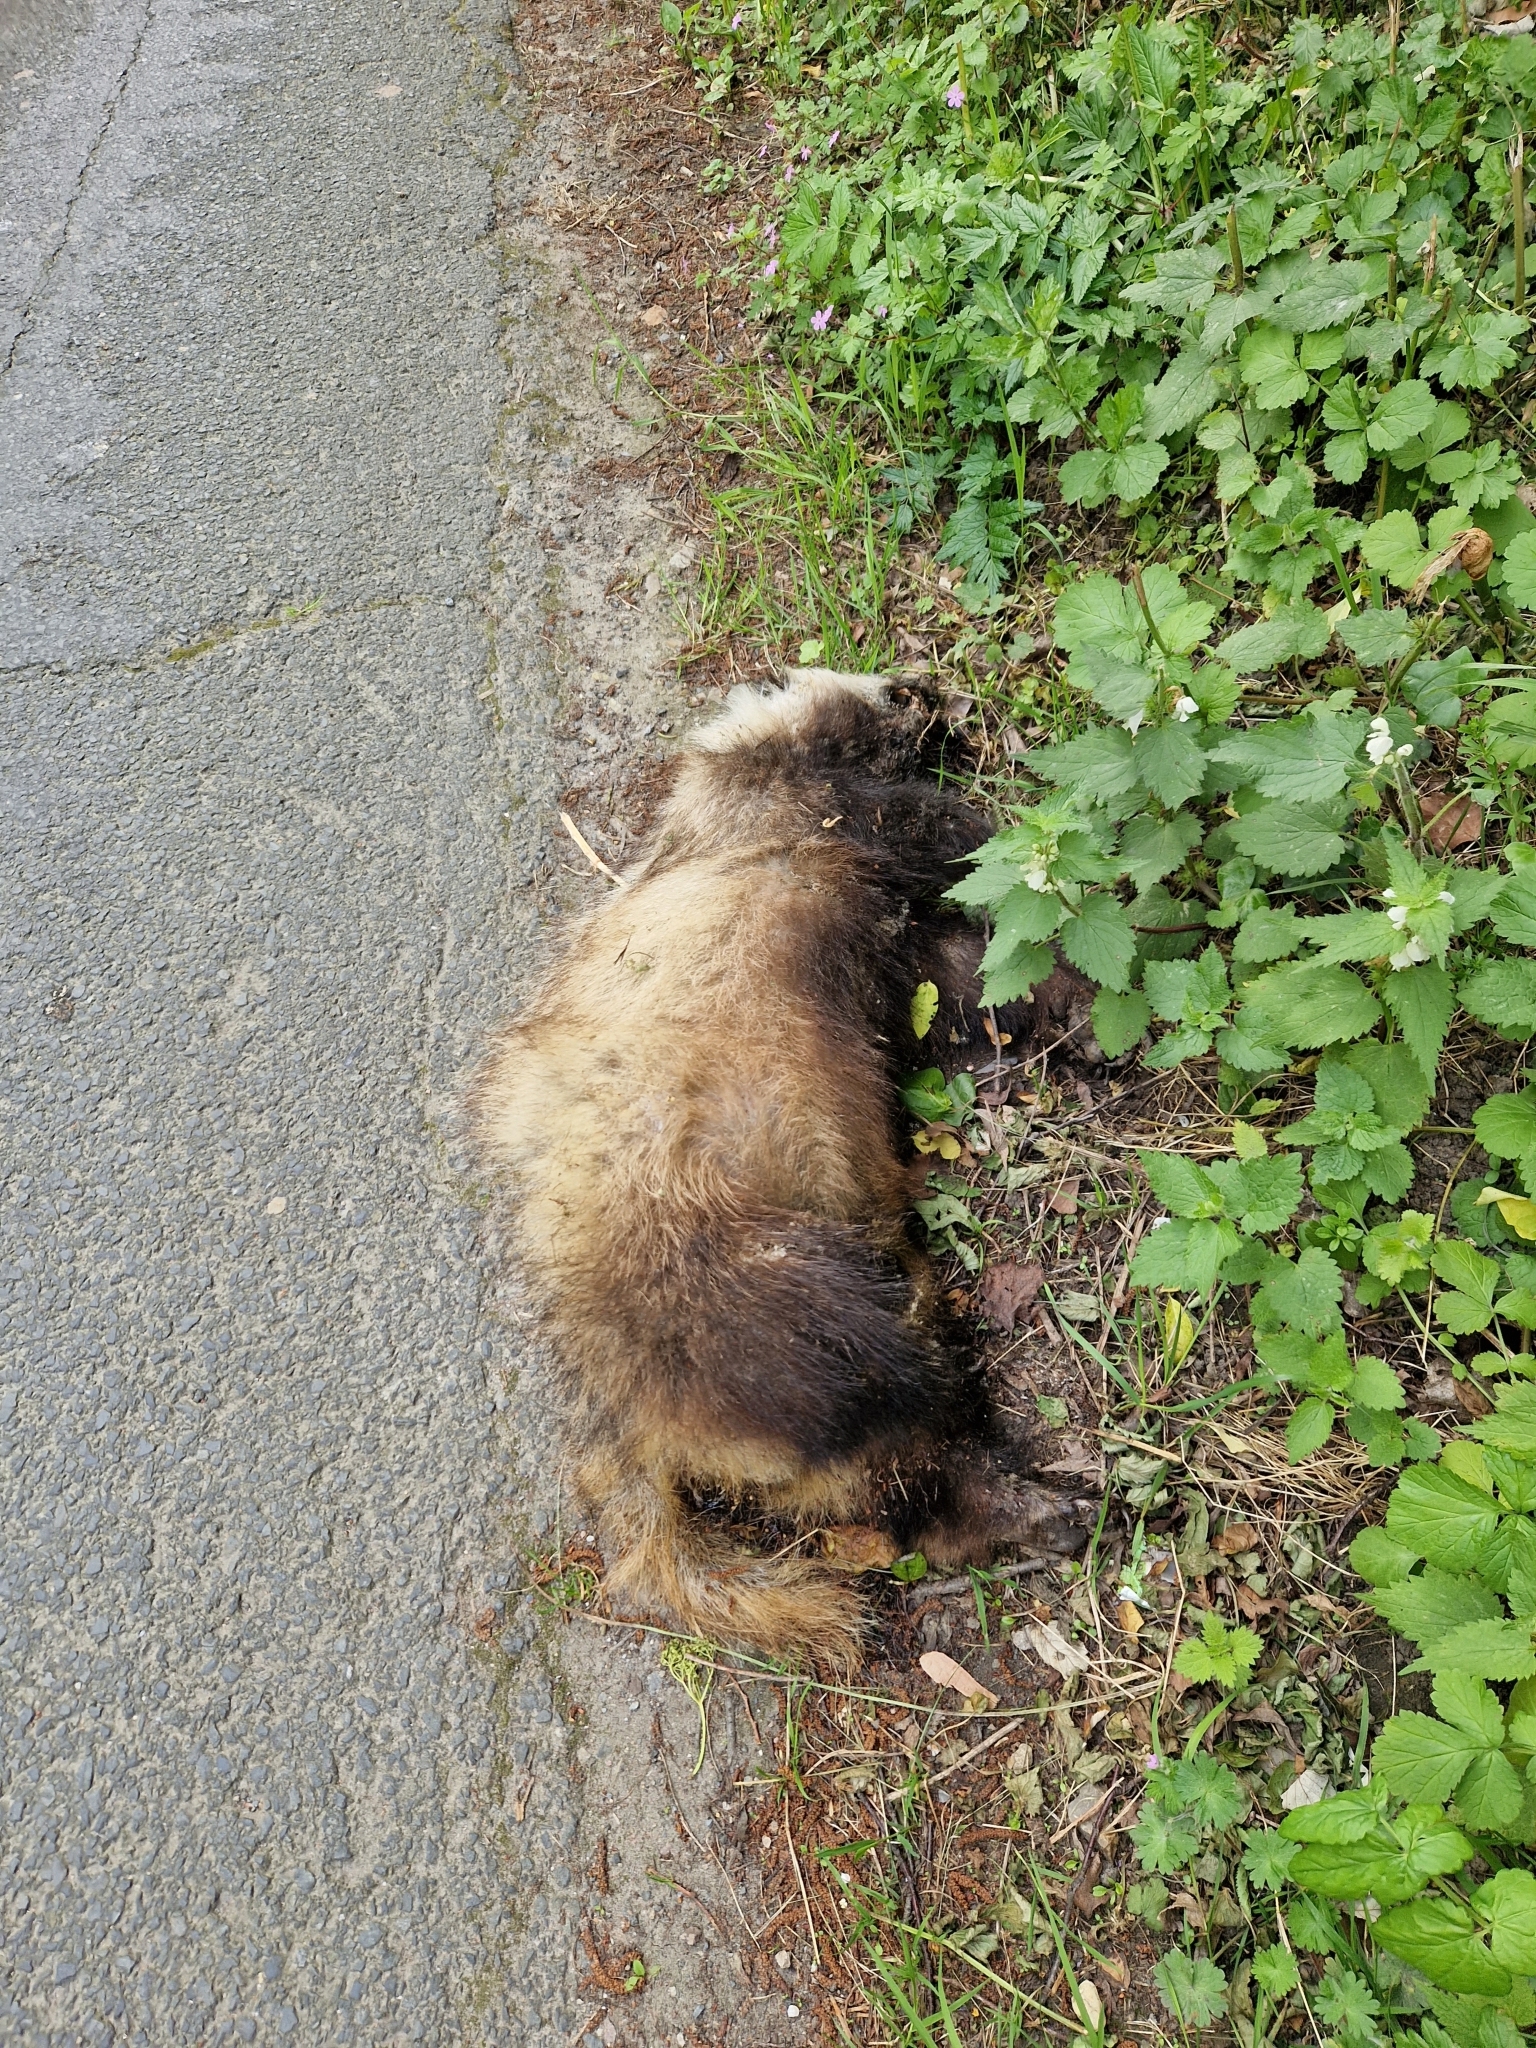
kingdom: Animalia
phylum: Chordata
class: Mammalia
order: Carnivora
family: Mustelidae
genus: Meles
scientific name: Meles meles
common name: Eurasian badger
